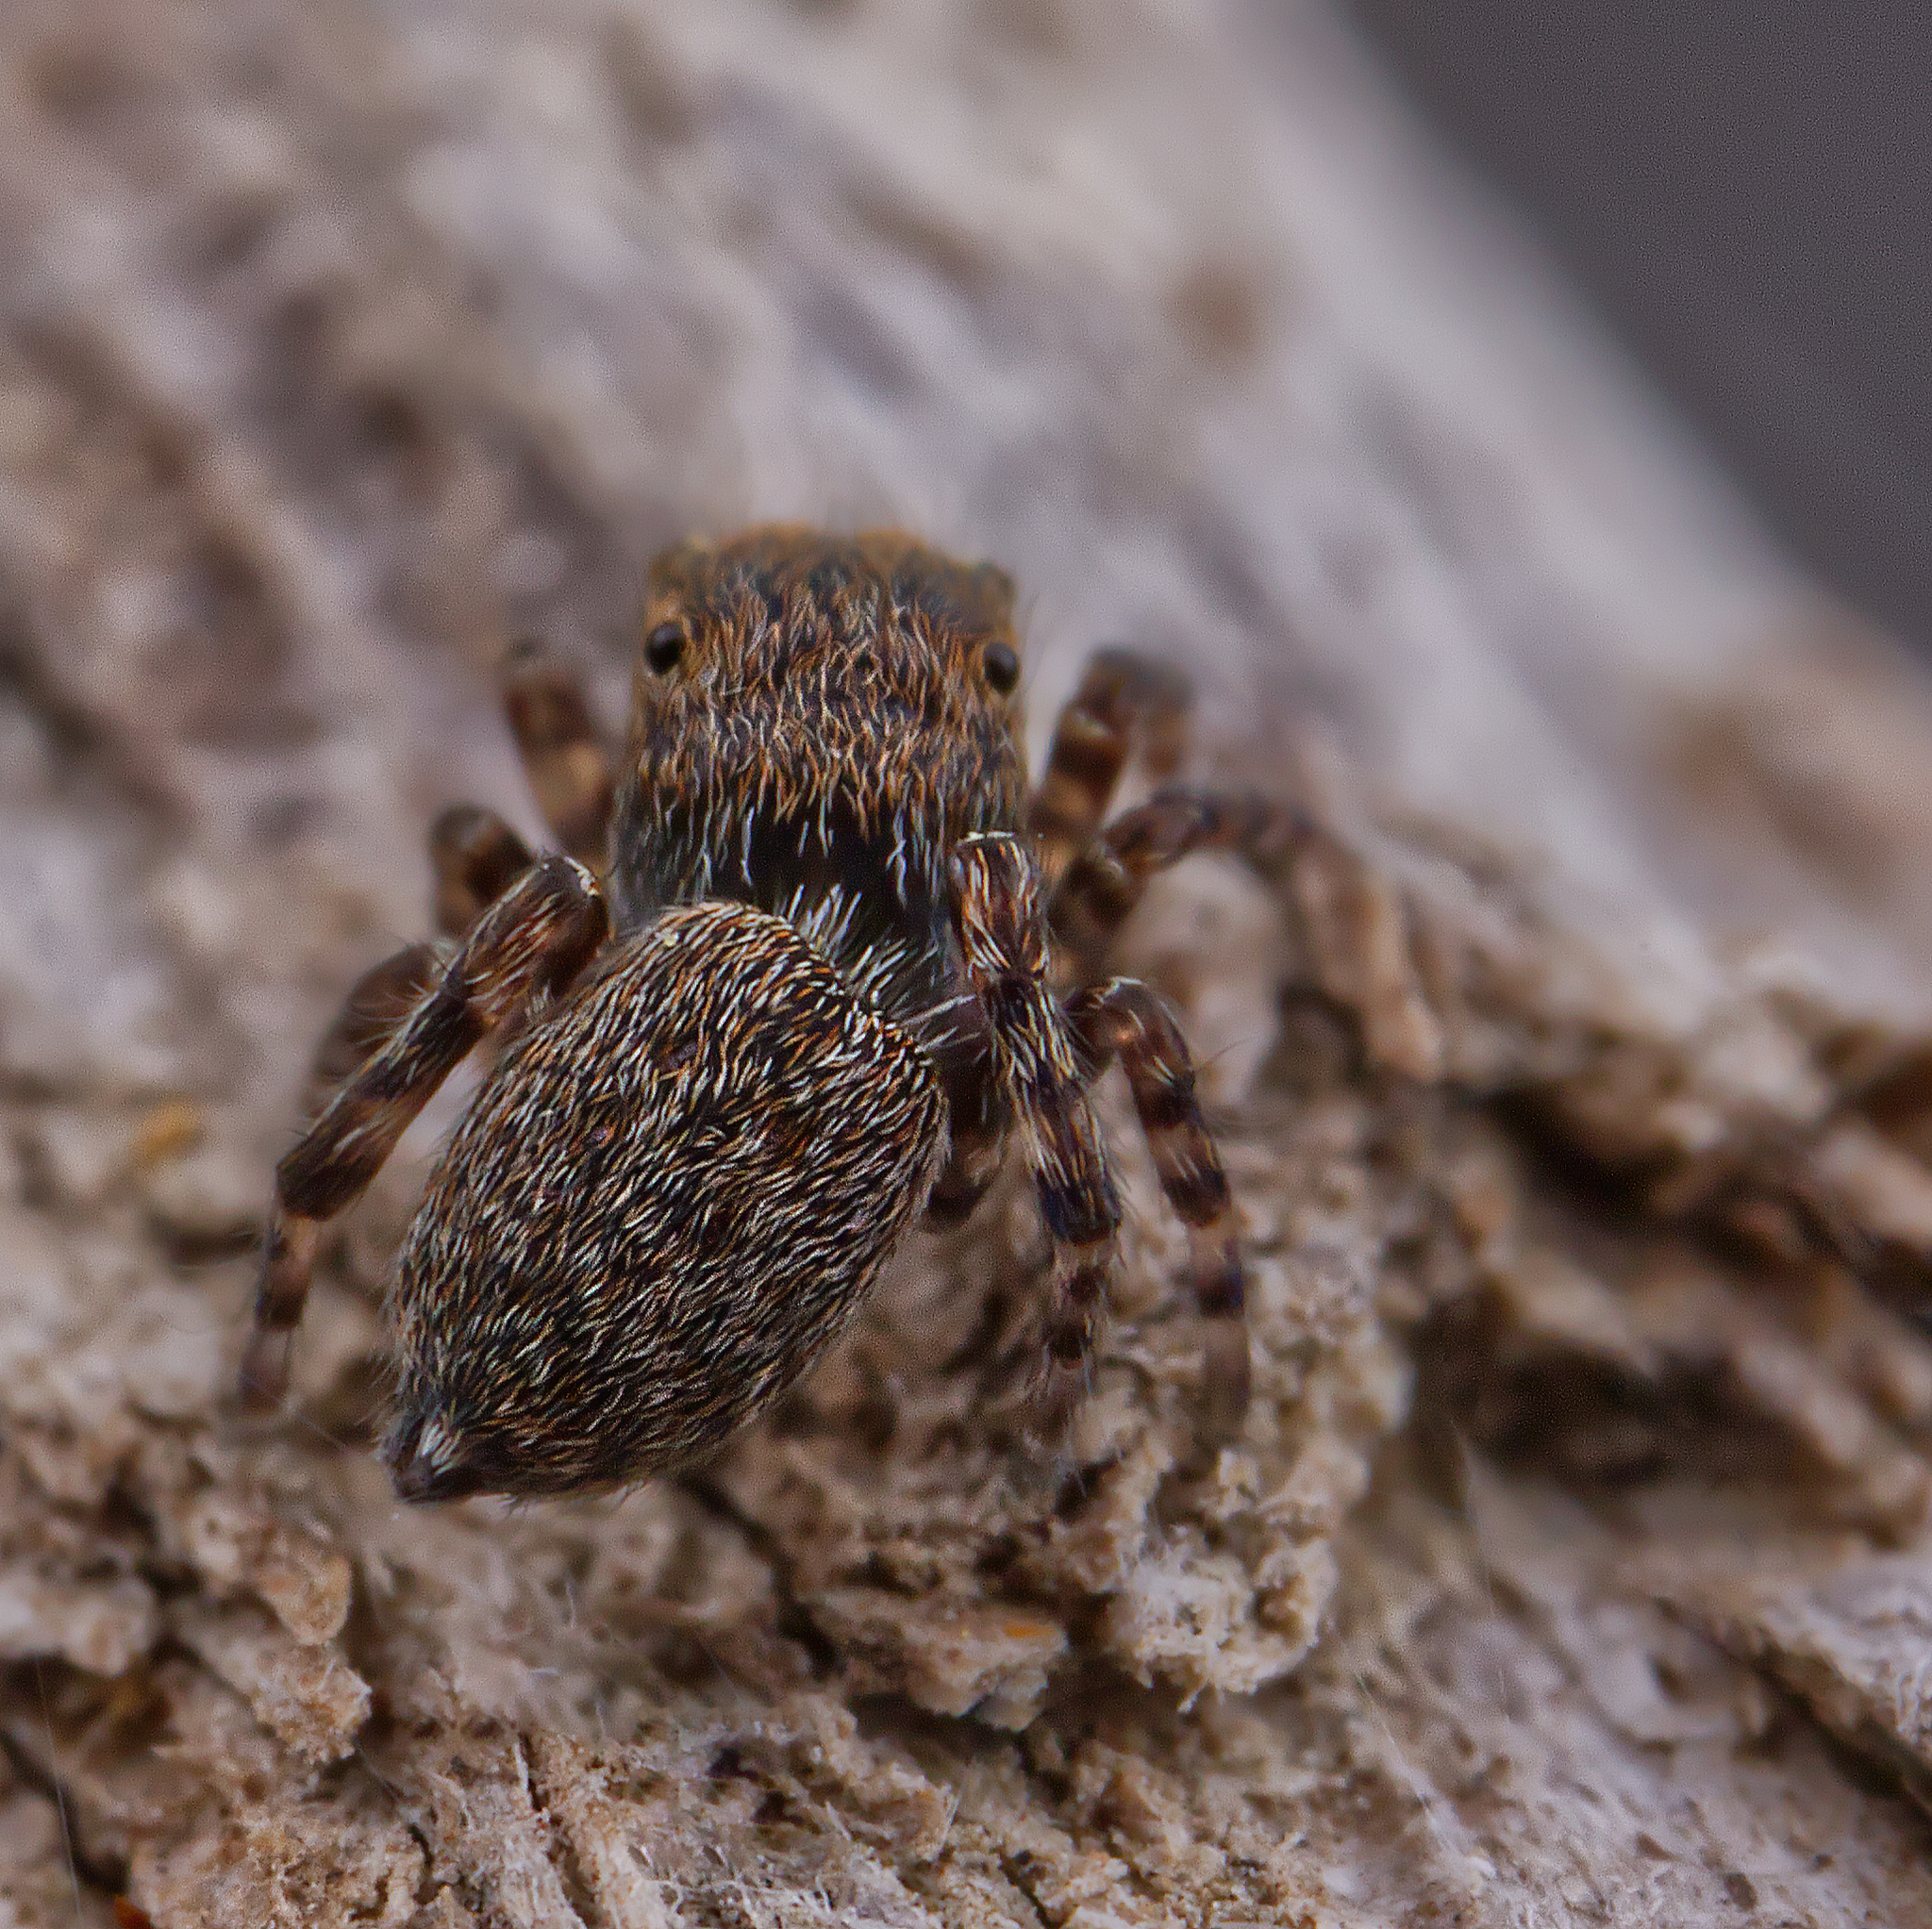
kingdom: Animalia
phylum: Arthropoda
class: Arachnida
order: Araneae
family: Salticidae
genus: Attinella
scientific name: Attinella concolor
